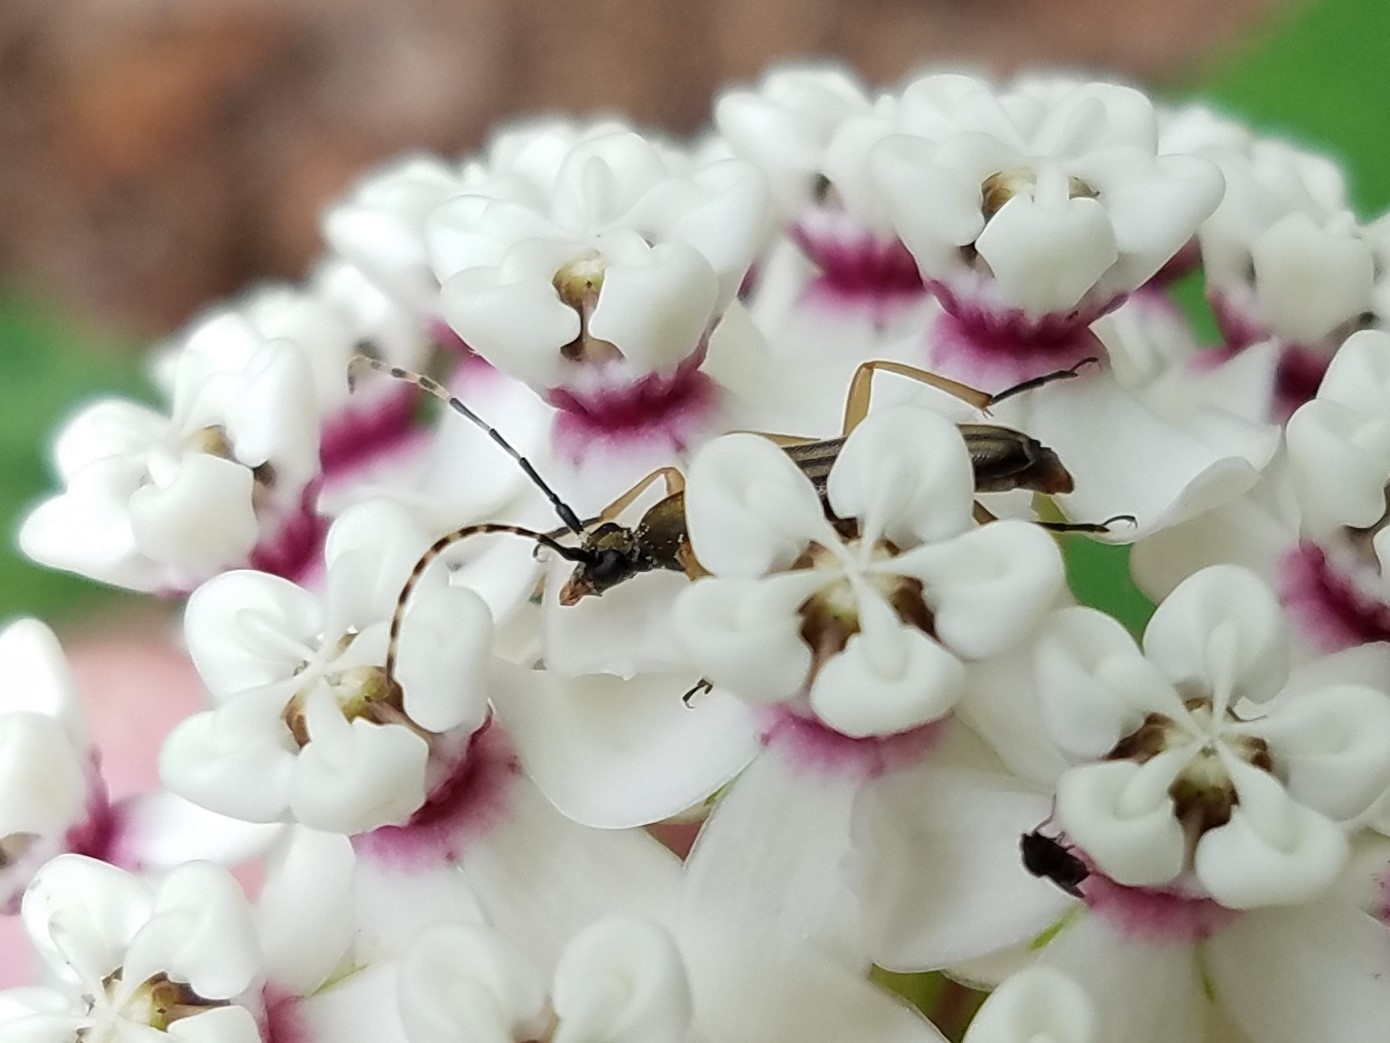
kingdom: Animalia
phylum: Arthropoda
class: Insecta
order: Coleoptera
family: Cerambycidae
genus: Analeptura
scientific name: Analeptura lineola
